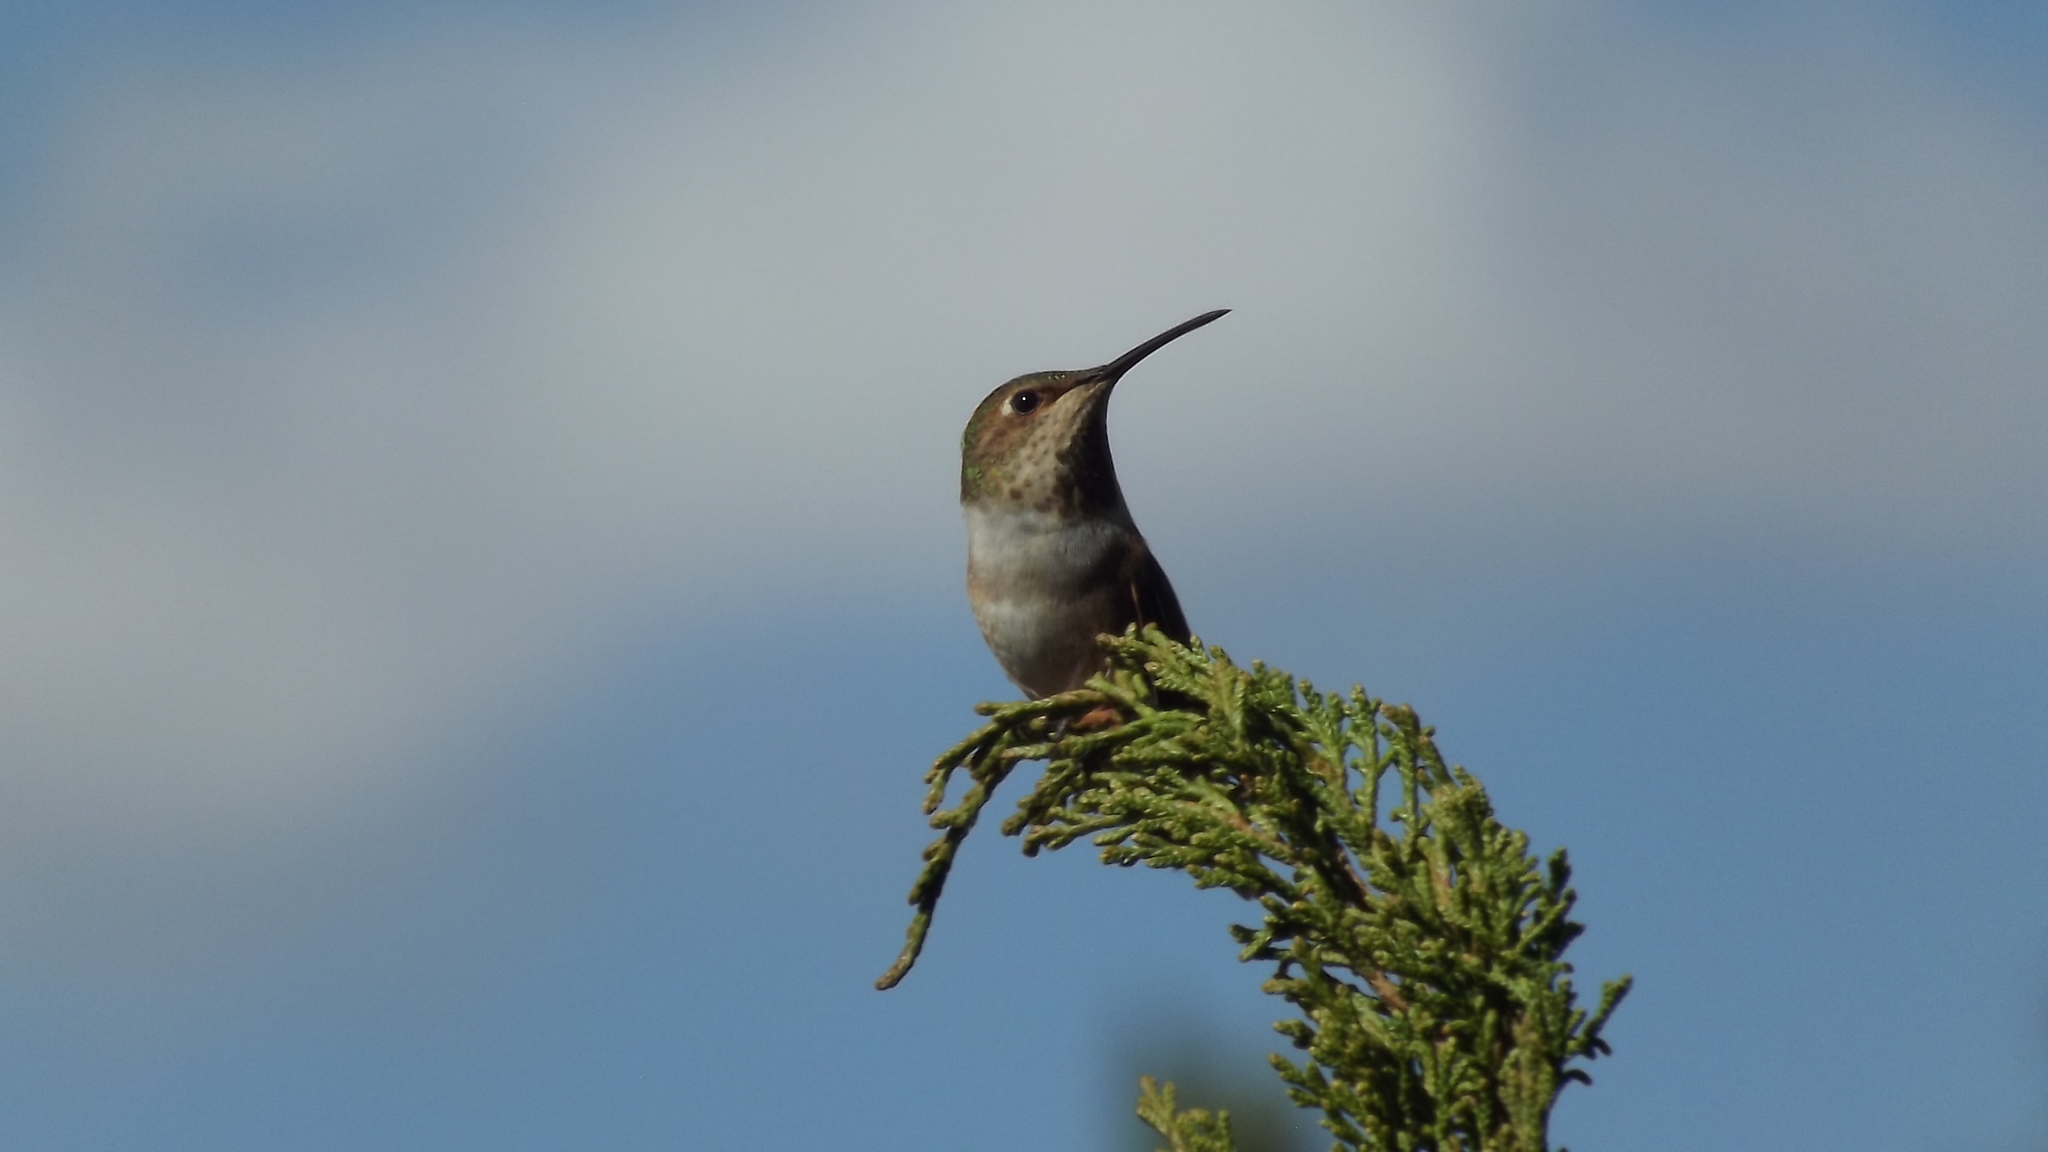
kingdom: Animalia
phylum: Chordata
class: Aves
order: Apodiformes
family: Trochilidae
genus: Selasphorus
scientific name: Selasphorus sasin
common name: Allen's hummingbird
